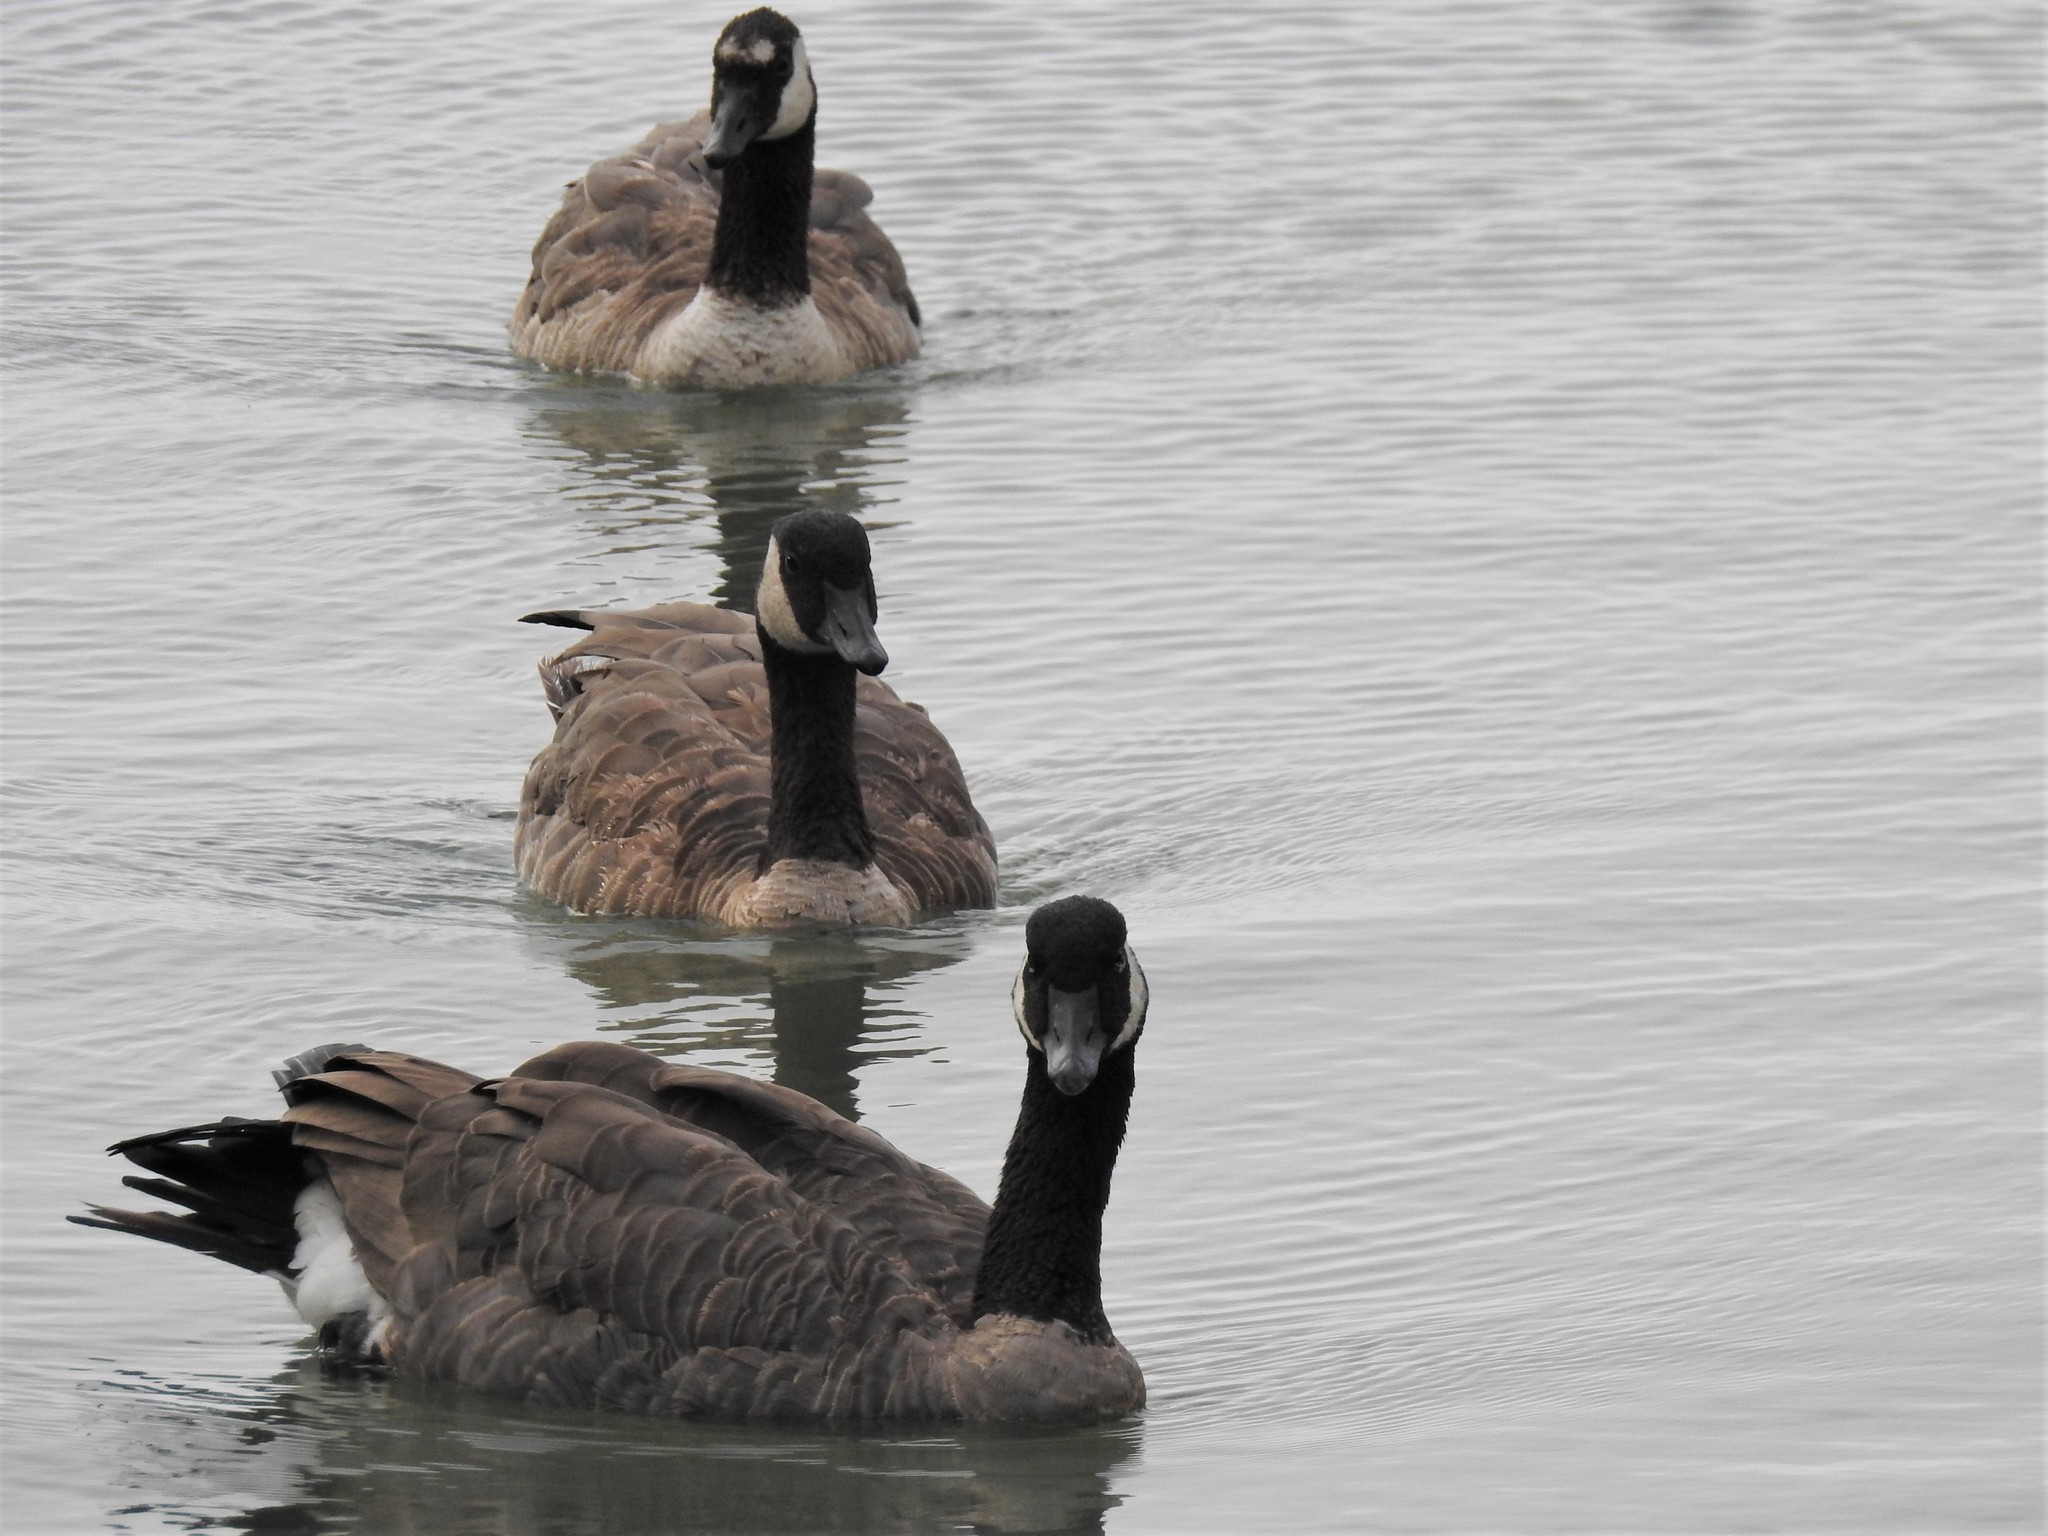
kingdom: Animalia
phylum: Chordata
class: Aves
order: Anseriformes
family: Anatidae
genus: Branta
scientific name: Branta canadensis
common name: Canada goose
